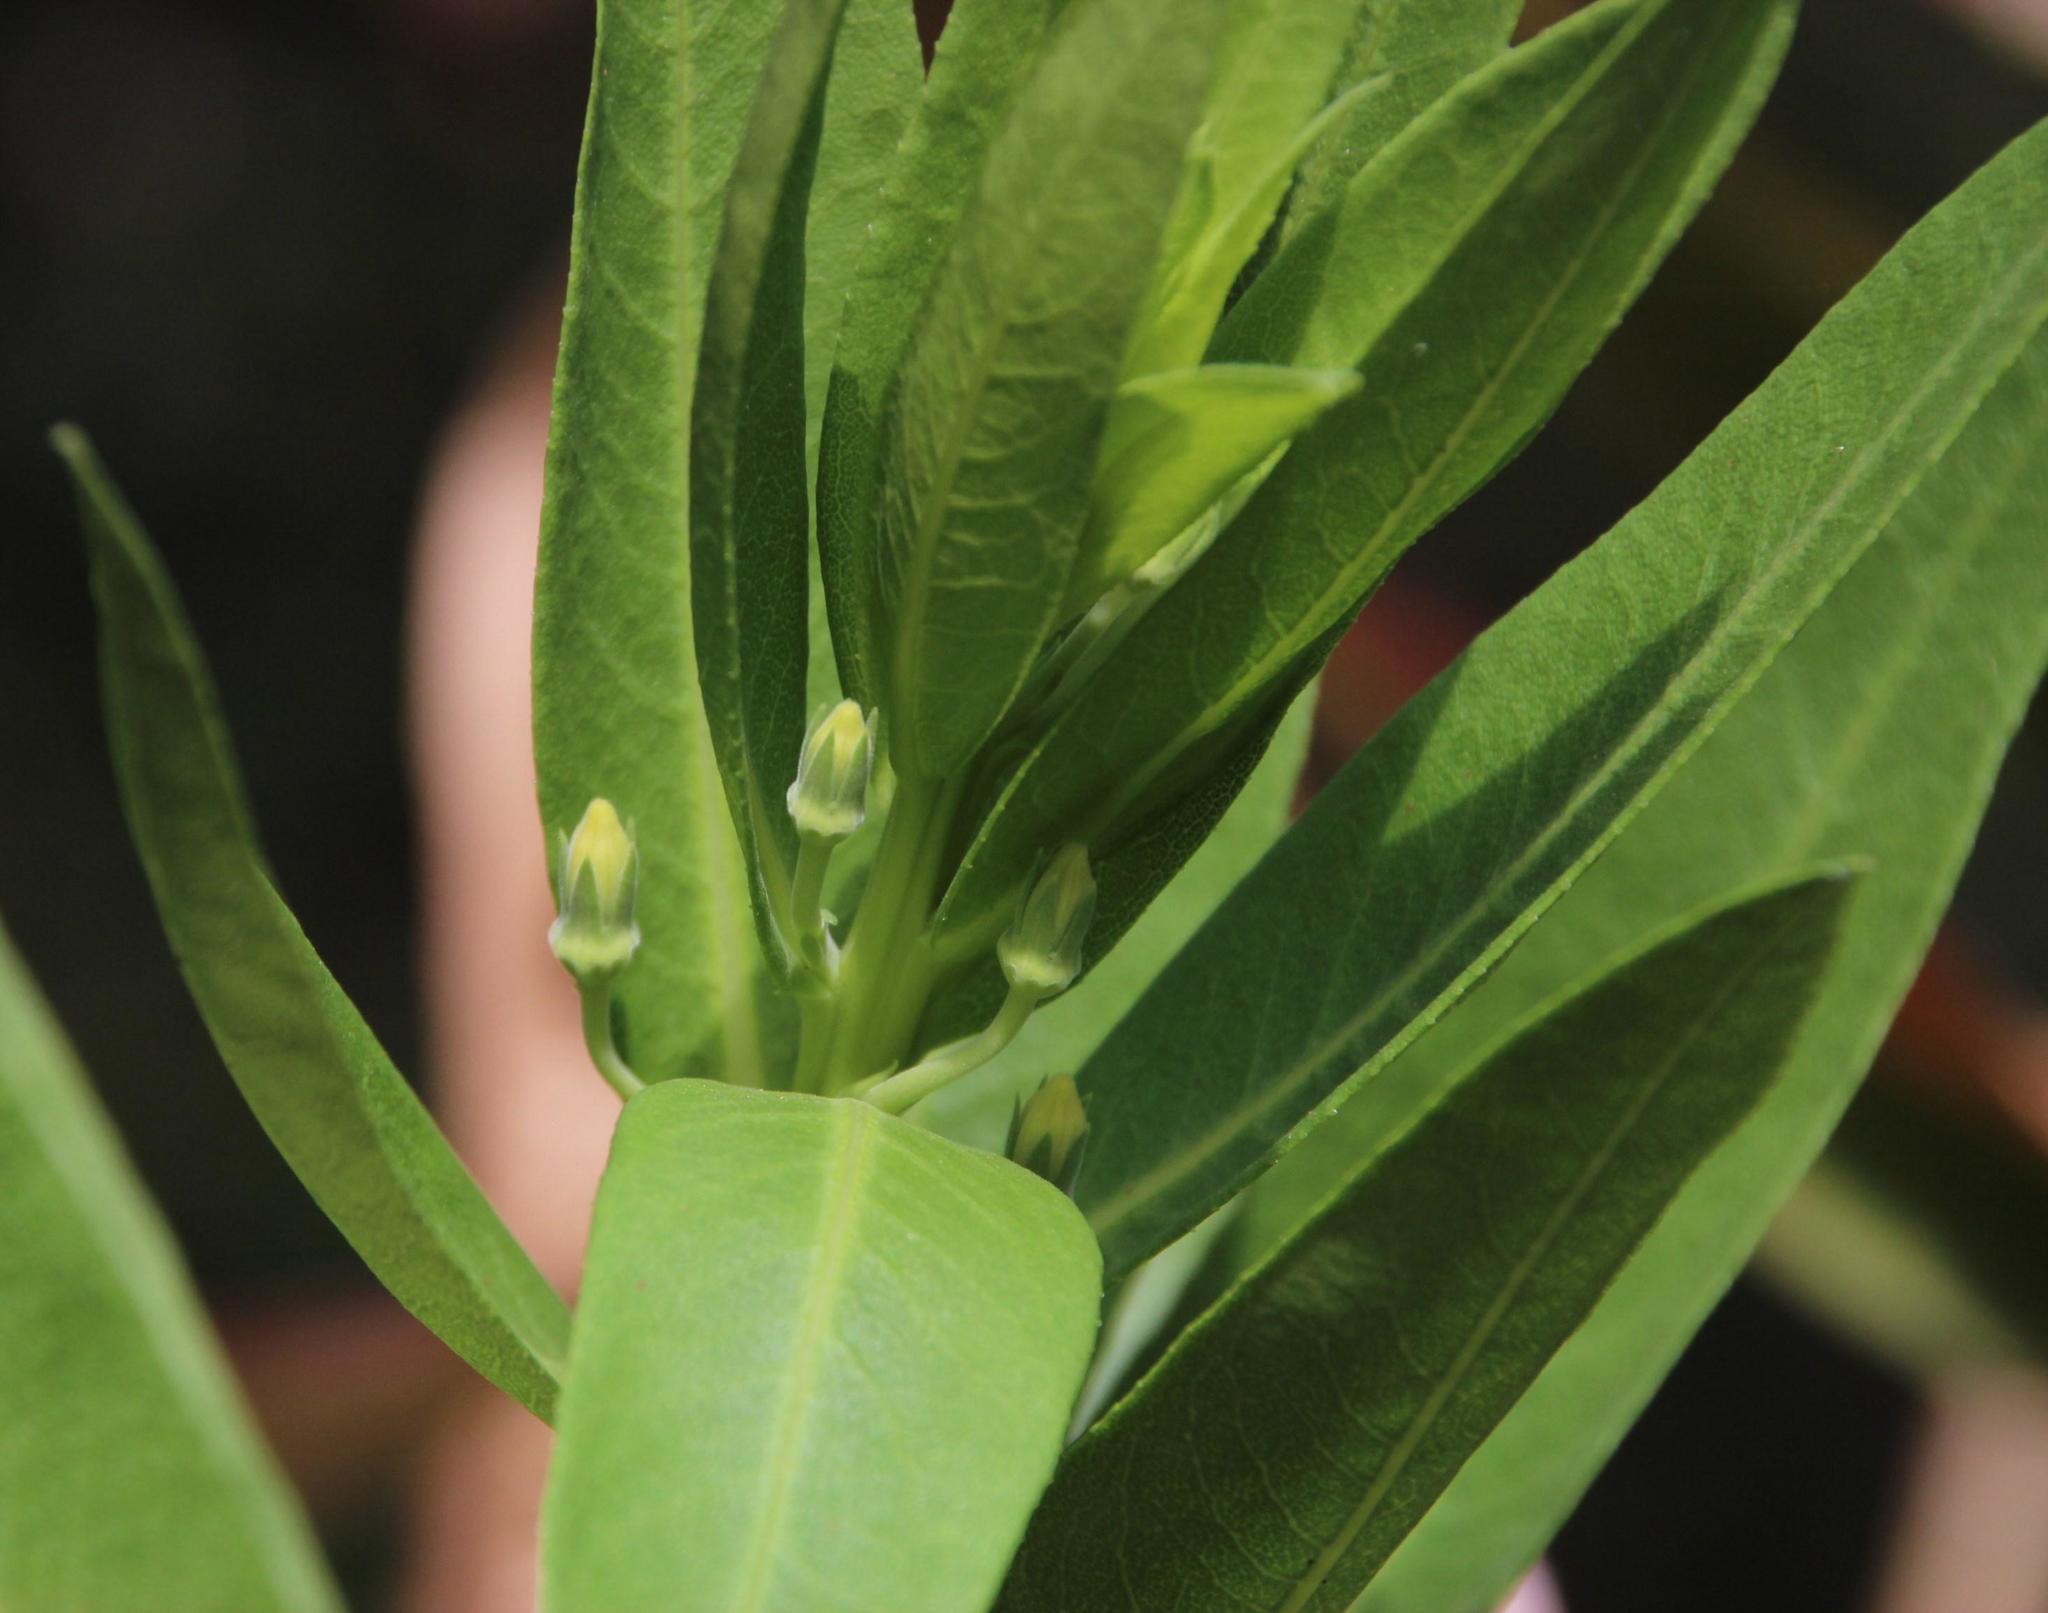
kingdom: Plantae
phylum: Tracheophyta
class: Magnoliopsida
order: Asterales
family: Campanulaceae
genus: Lobelia
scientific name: Lobelia excelsa
